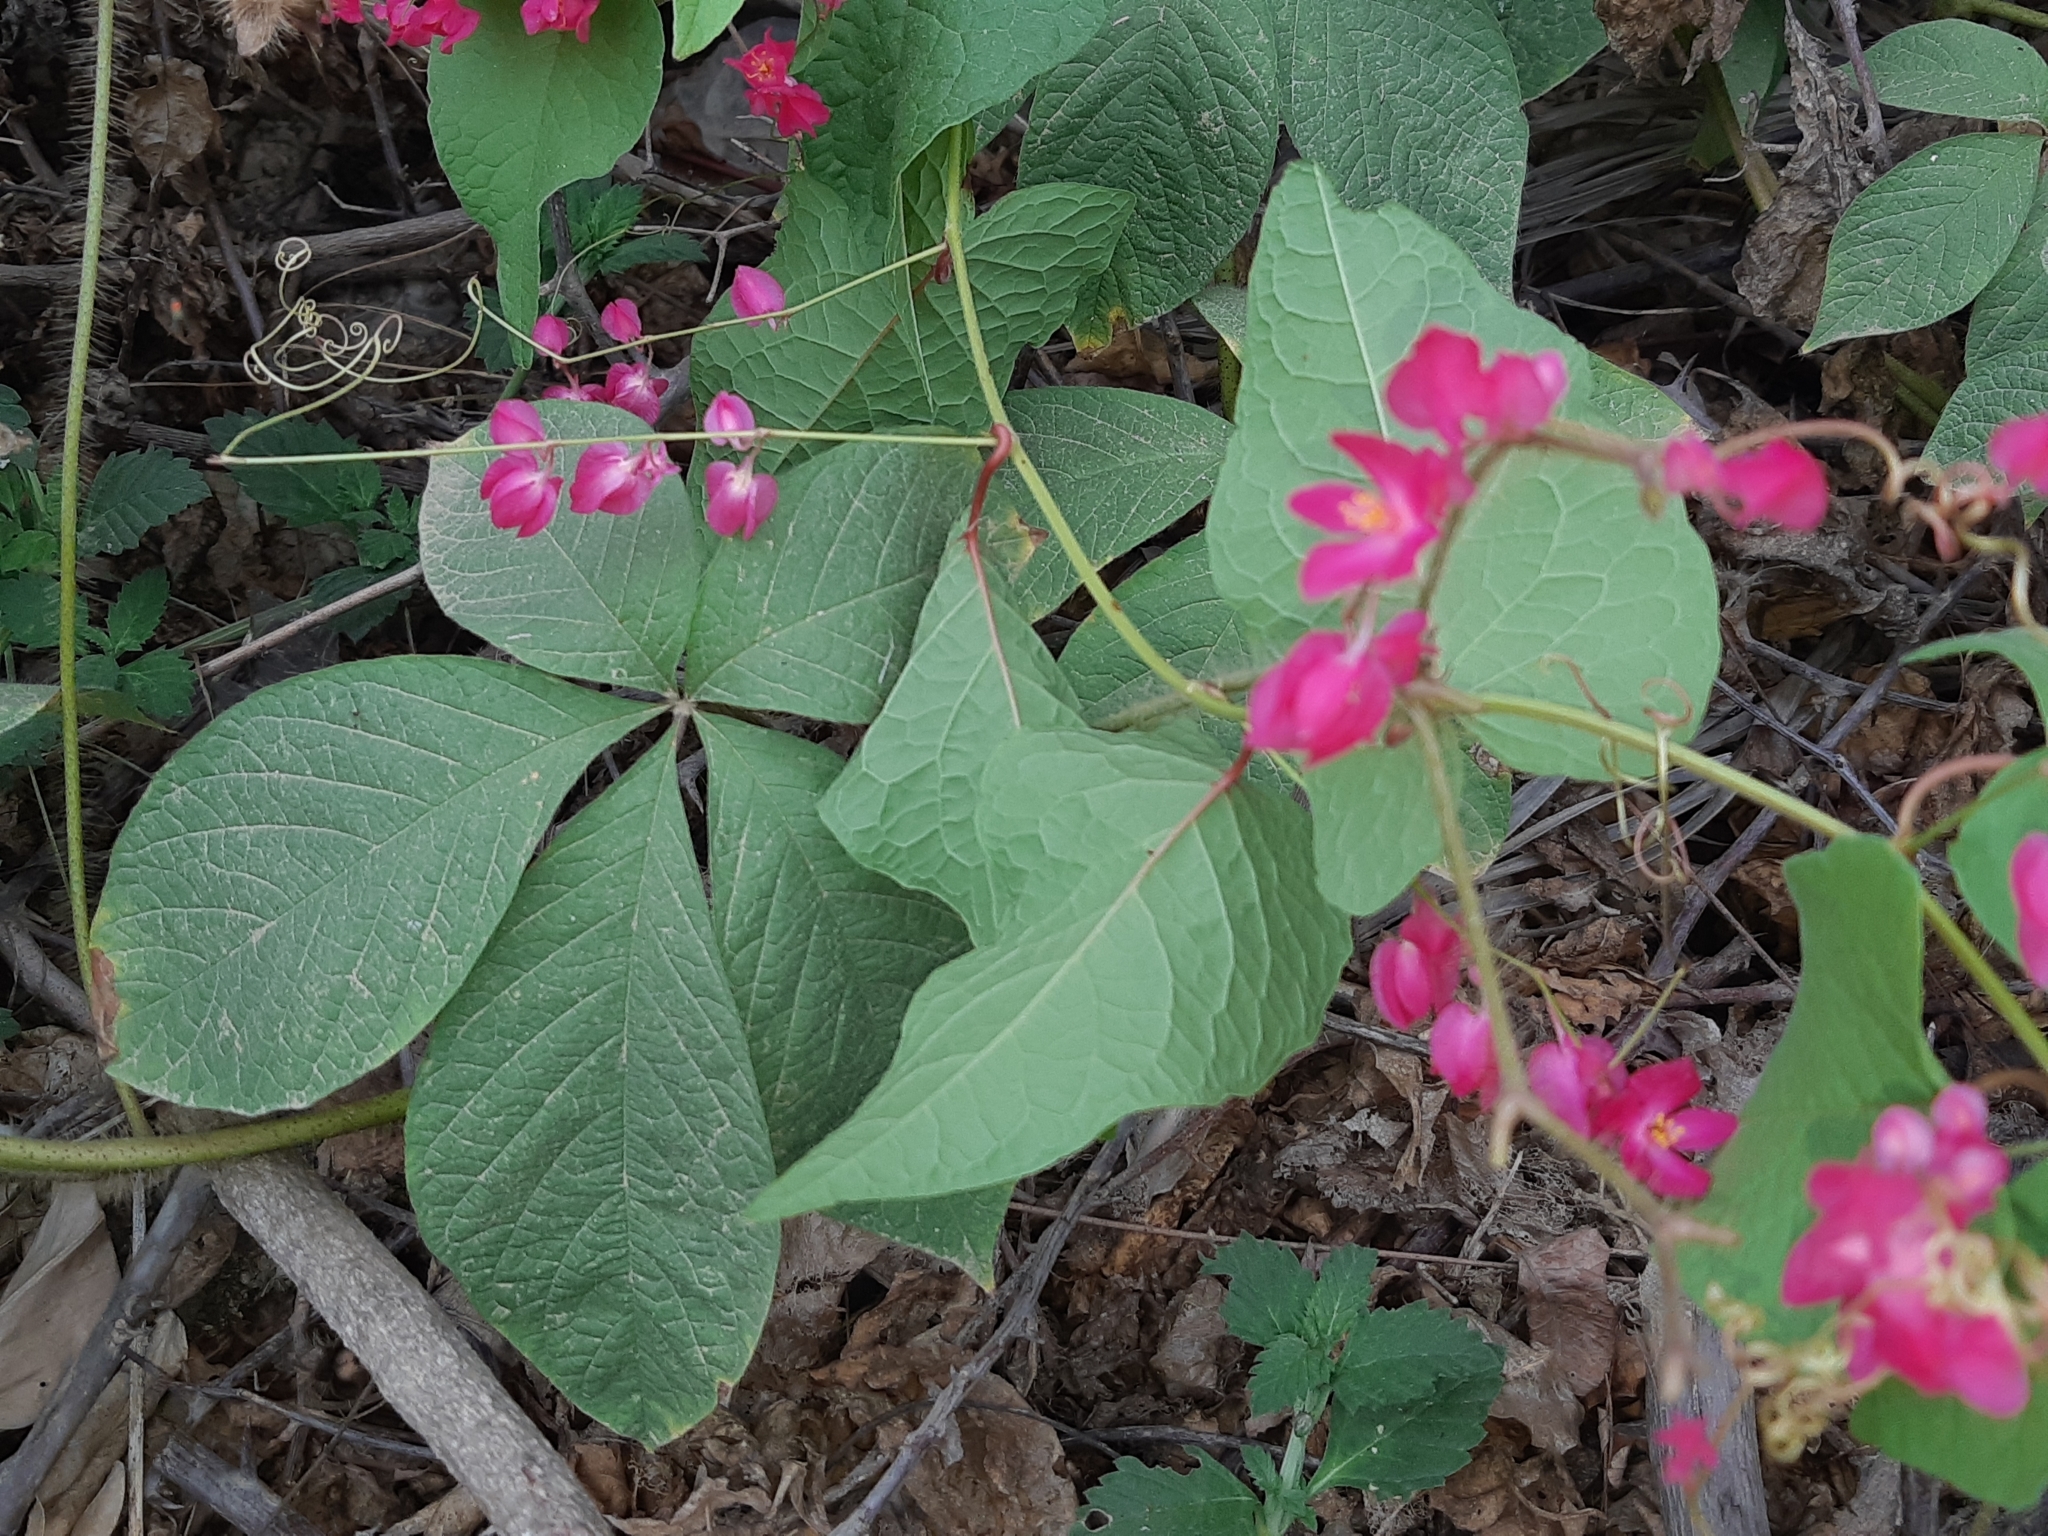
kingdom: Plantae
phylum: Tracheophyta
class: Magnoliopsida
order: Caryophyllales
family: Polygonaceae
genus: Antigonon
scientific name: Antigonon leptopus
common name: Coral vine
